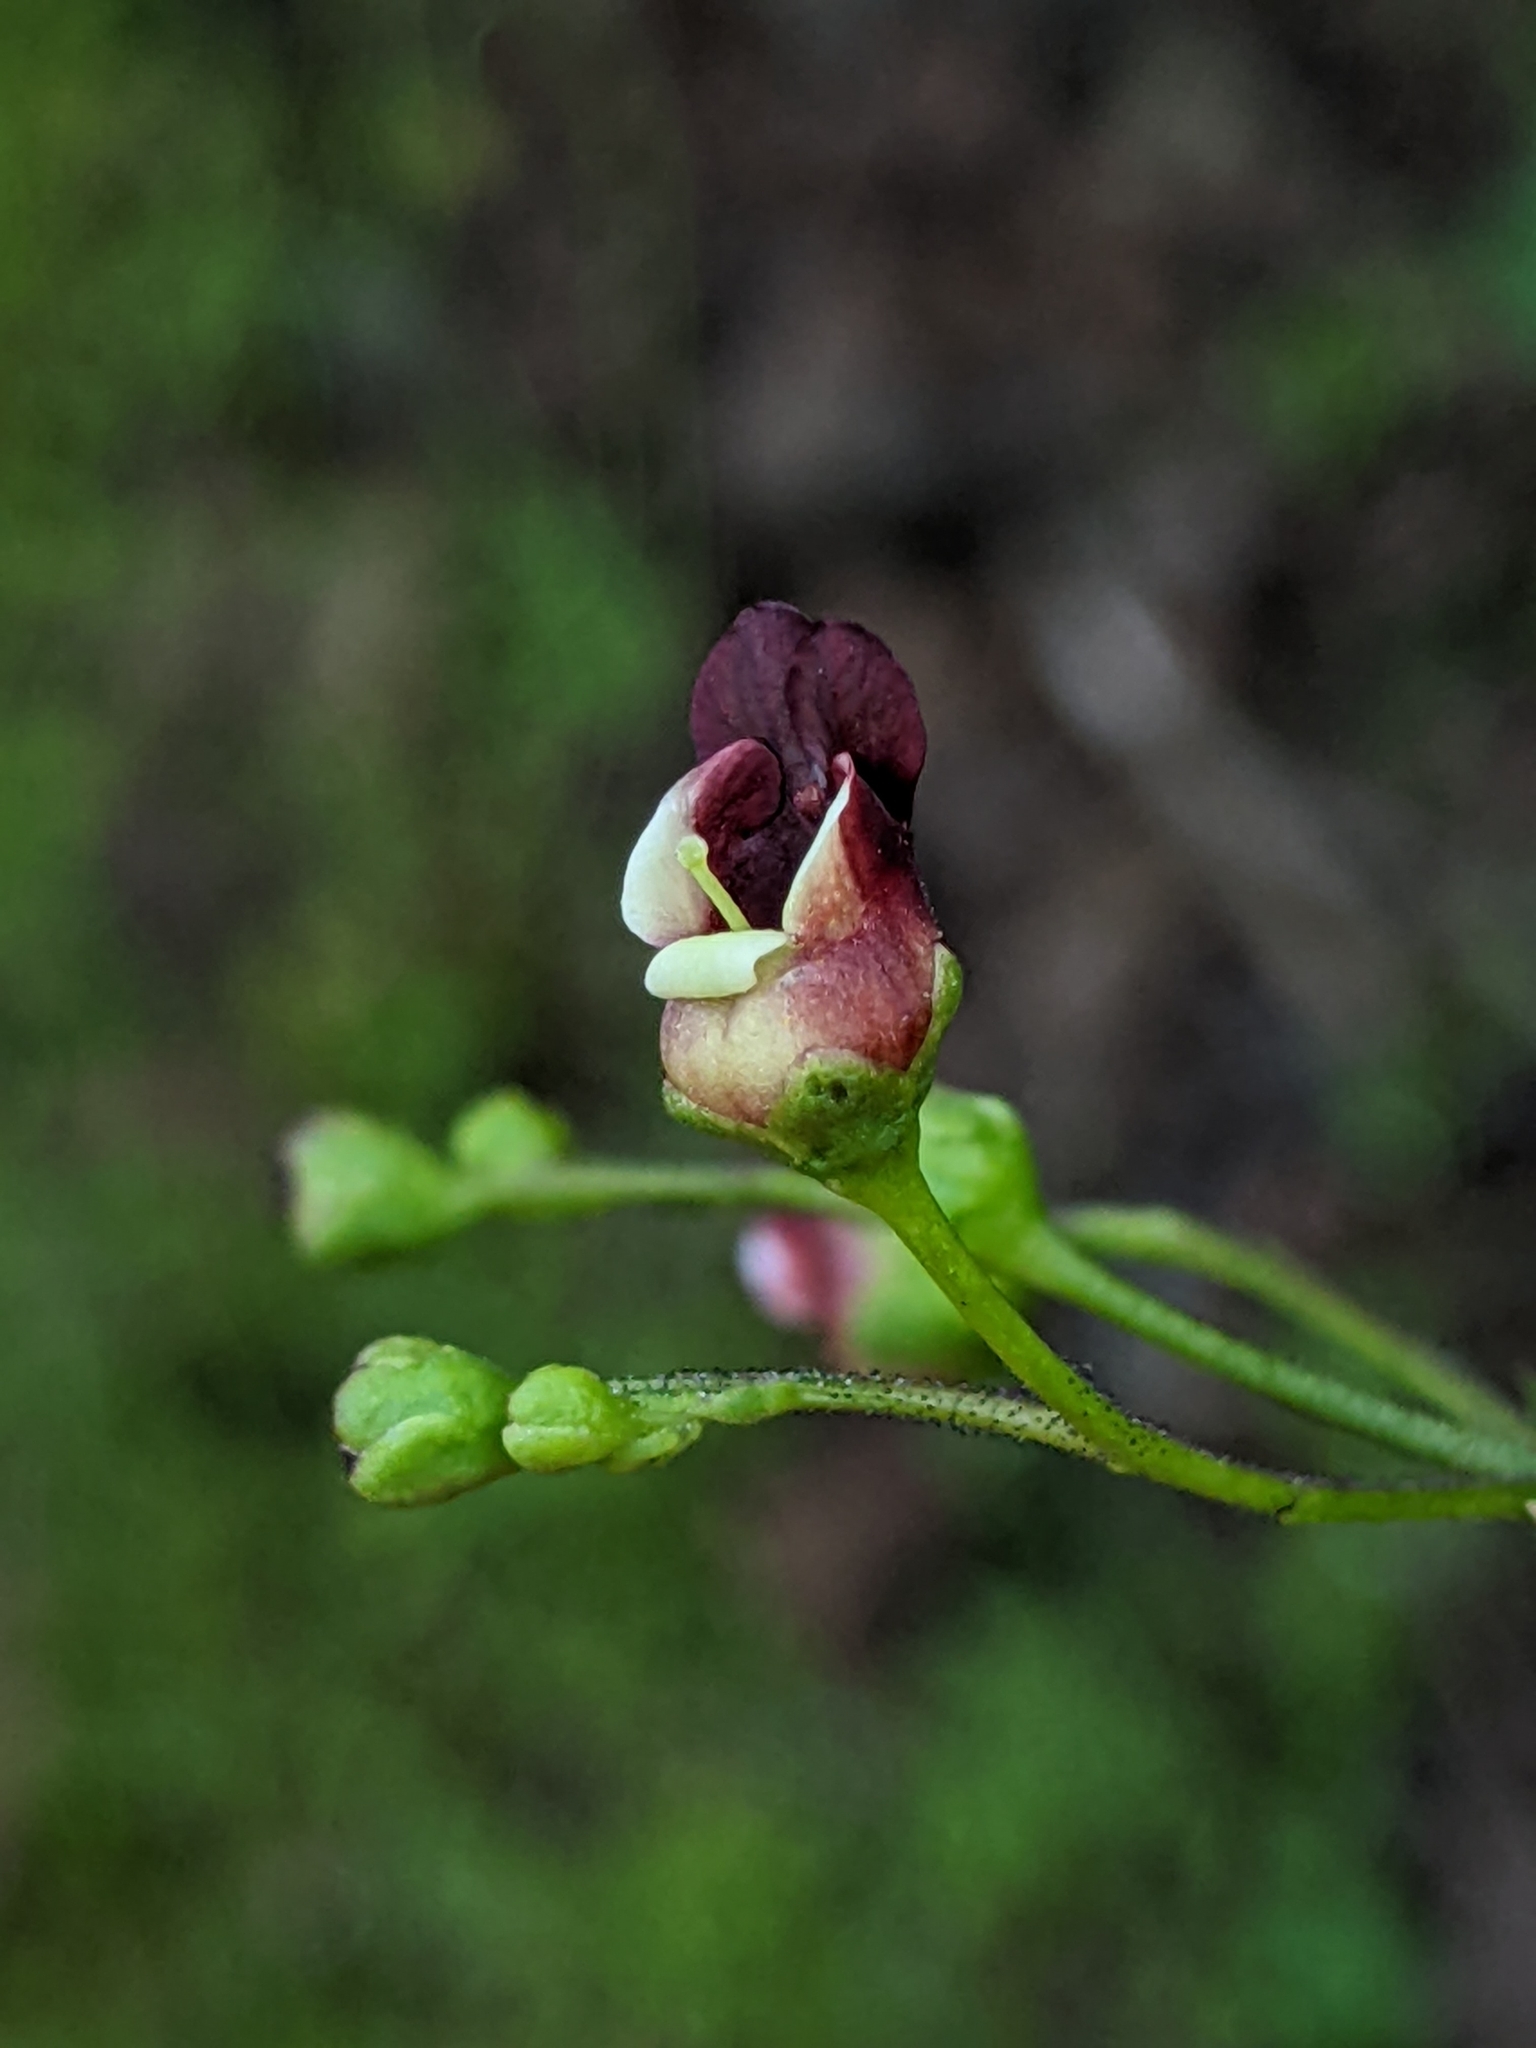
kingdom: Plantae
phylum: Tracheophyta
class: Magnoliopsida
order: Lamiales
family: Scrophulariaceae
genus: Scrophularia
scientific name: Scrophularia californica
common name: California figwort
